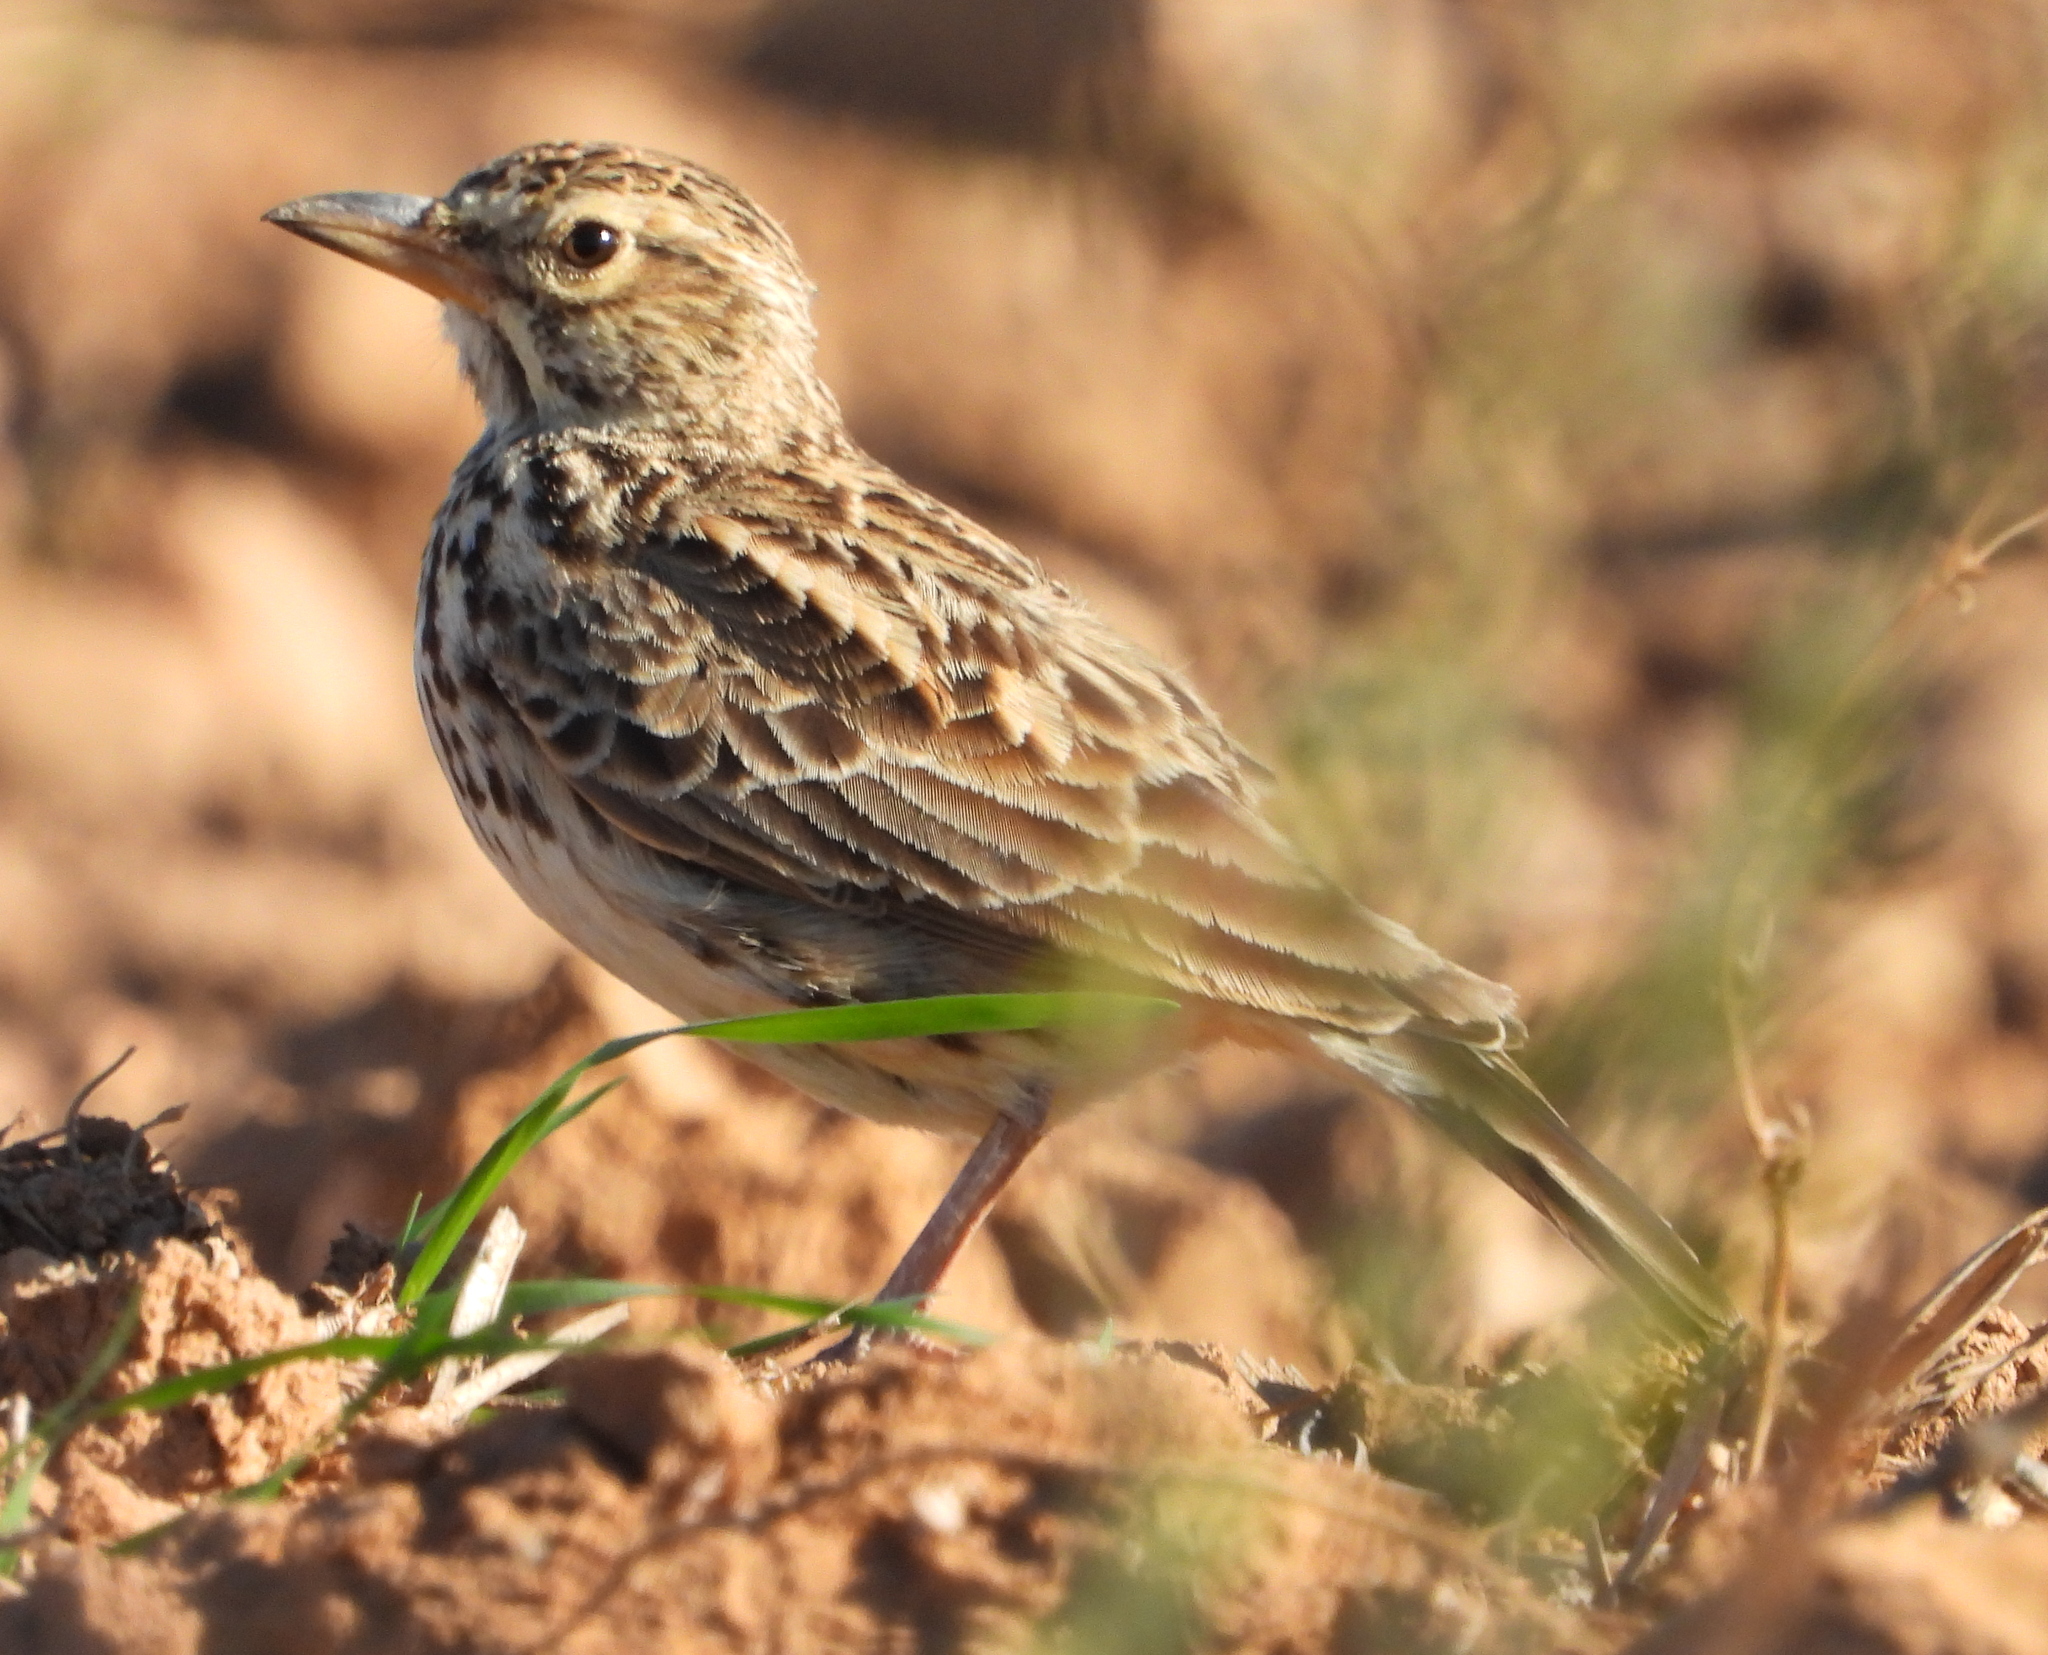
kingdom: Animalia
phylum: Chordata
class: Aves
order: Passeriformes
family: Alaudidae
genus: Galerida
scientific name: Galerida magnirostris
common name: Large-billed lark
